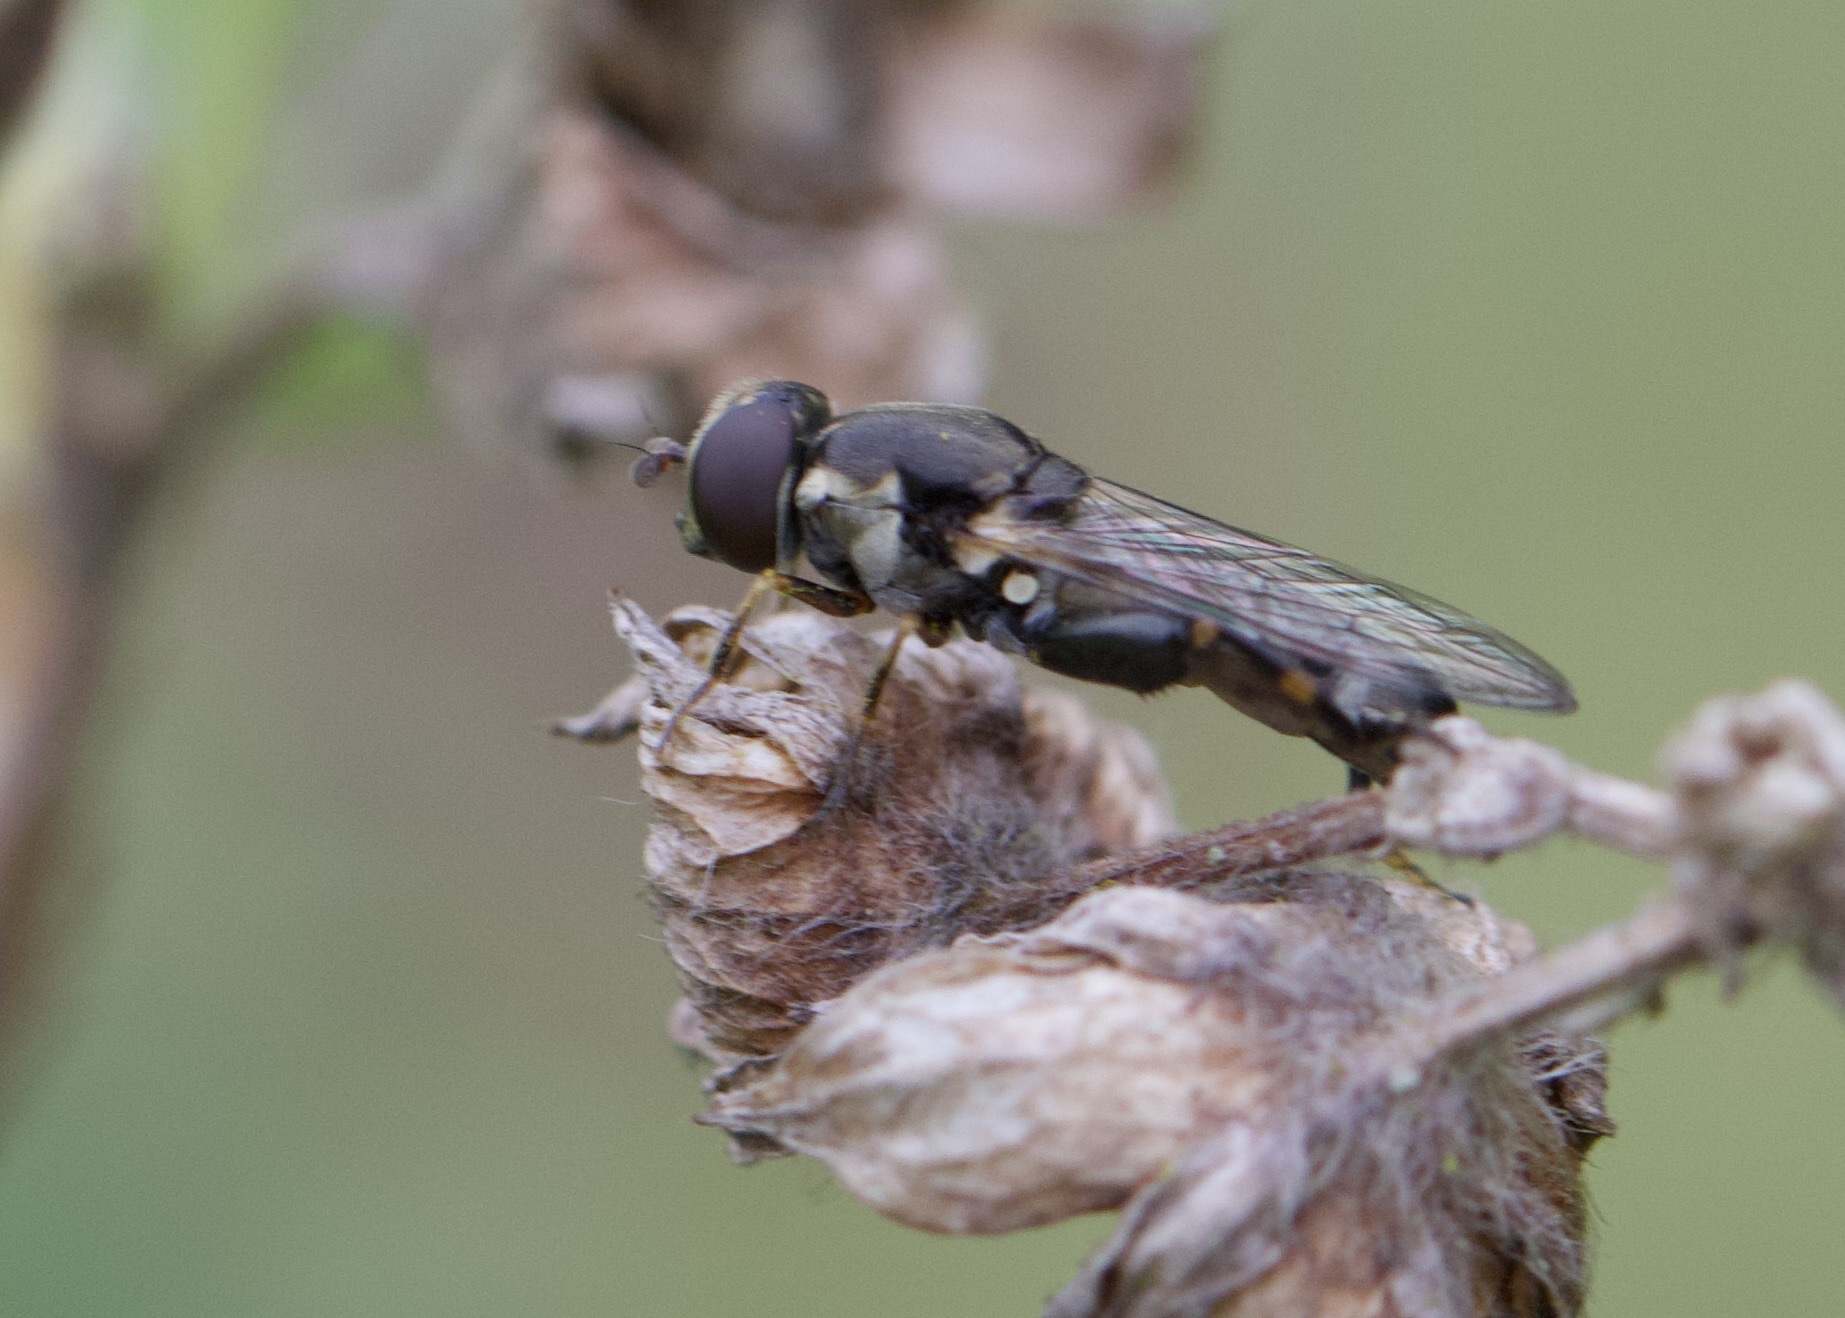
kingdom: Animalia
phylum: Arthropoda
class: Insecta
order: Diptera
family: Syrphidae
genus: Syritta
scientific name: Syritta pipiens
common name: Hover fly
